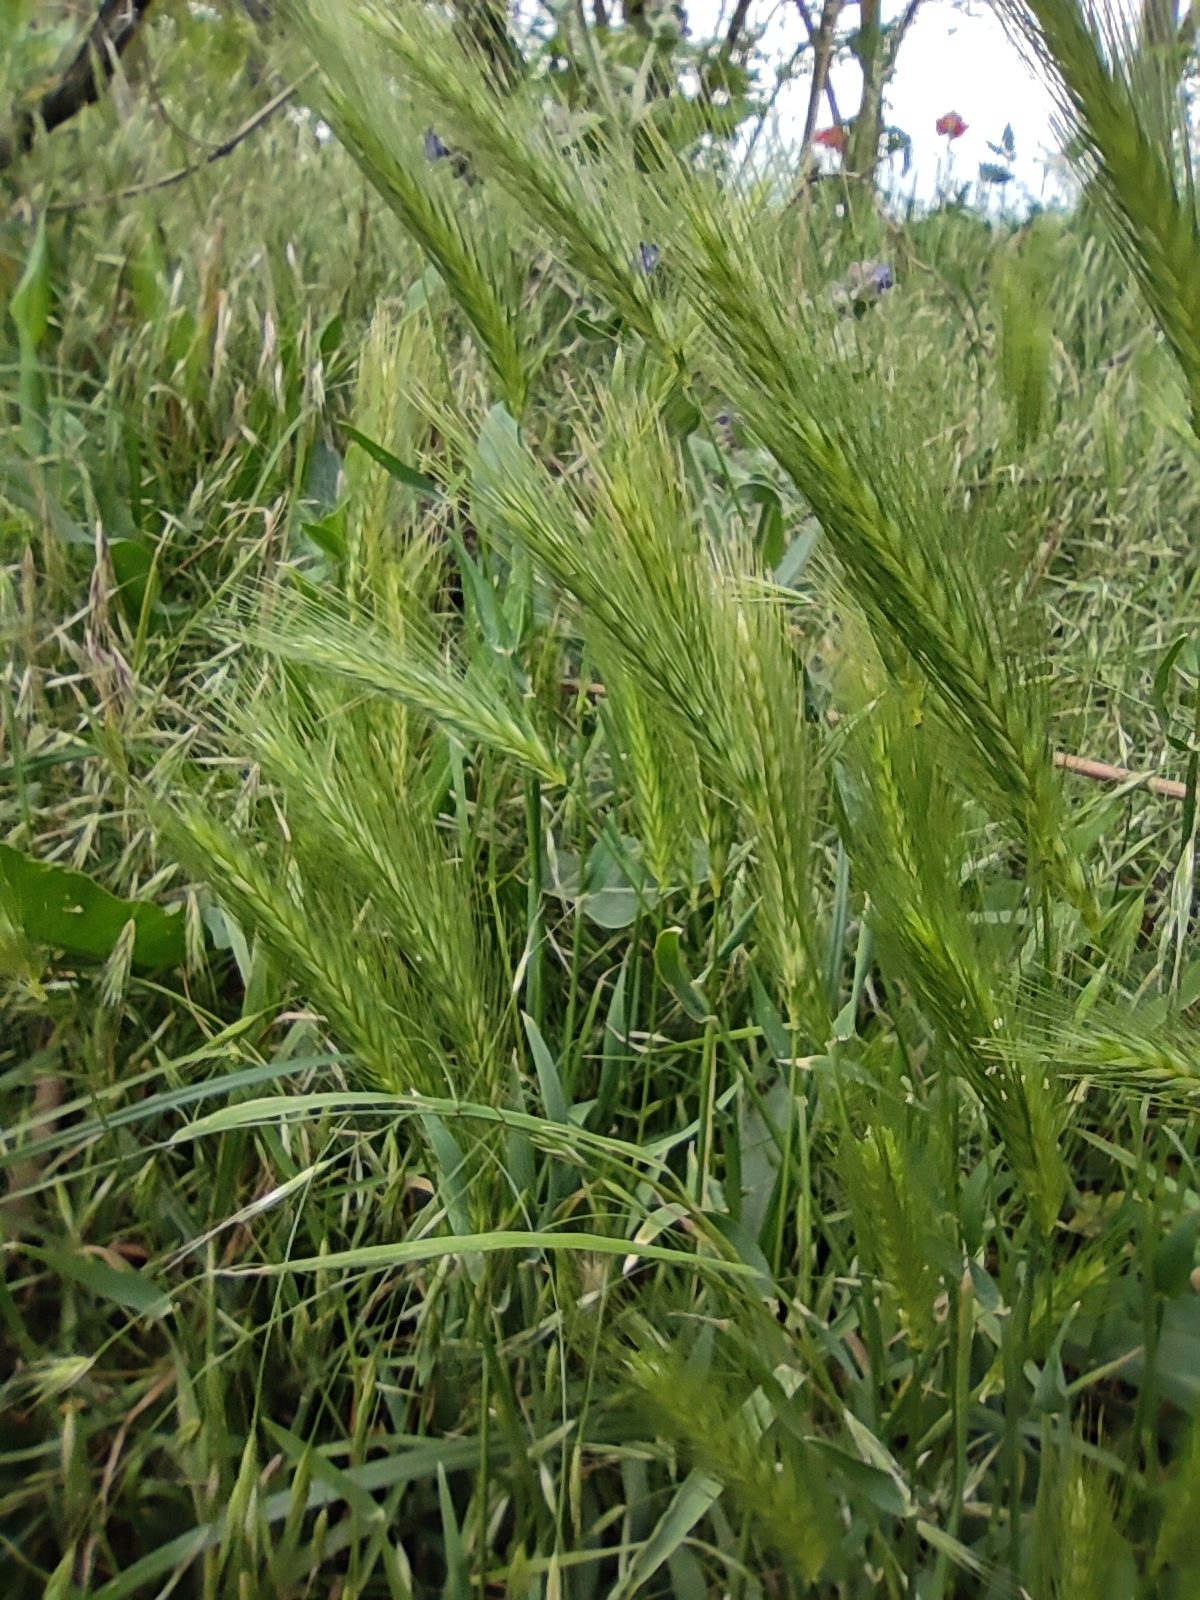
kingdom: Plantae
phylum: Tracheophyta
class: Liliopsida
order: Poales
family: Poaceae
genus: Hordeum
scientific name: Hordeum murinum
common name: Wall barley
